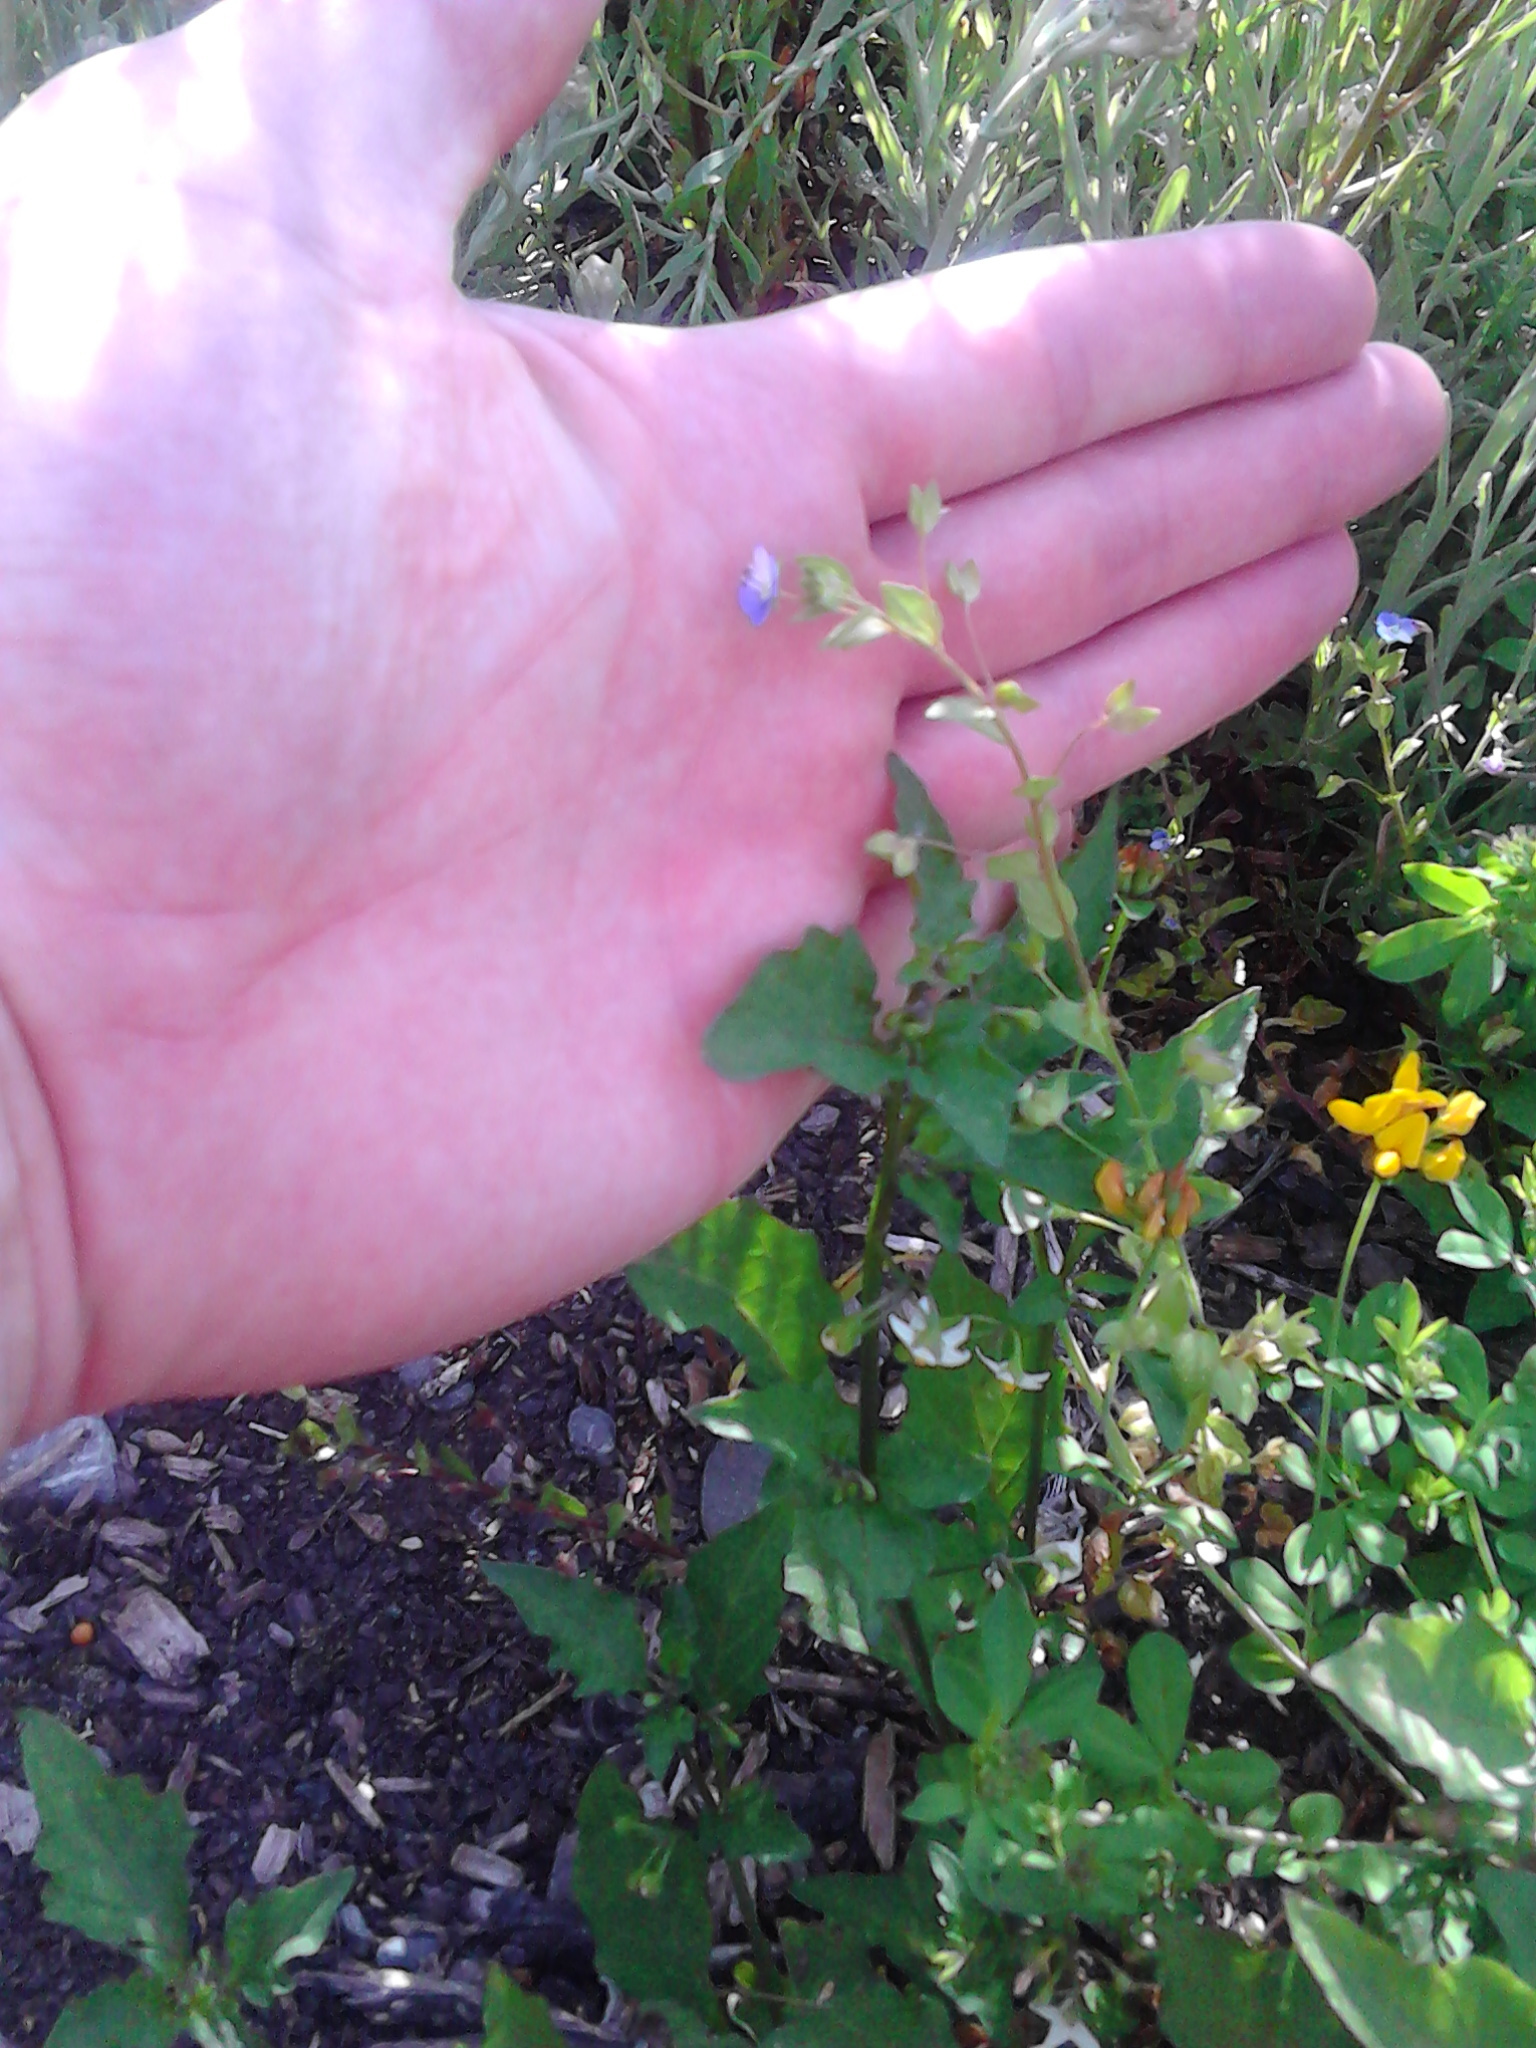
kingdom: Plantae
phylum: Tracheophyta
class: Magnoliopsida
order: Lamiales
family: Plantaginaceae
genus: Veronica
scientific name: Veronica persica
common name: Common field-speedwell
